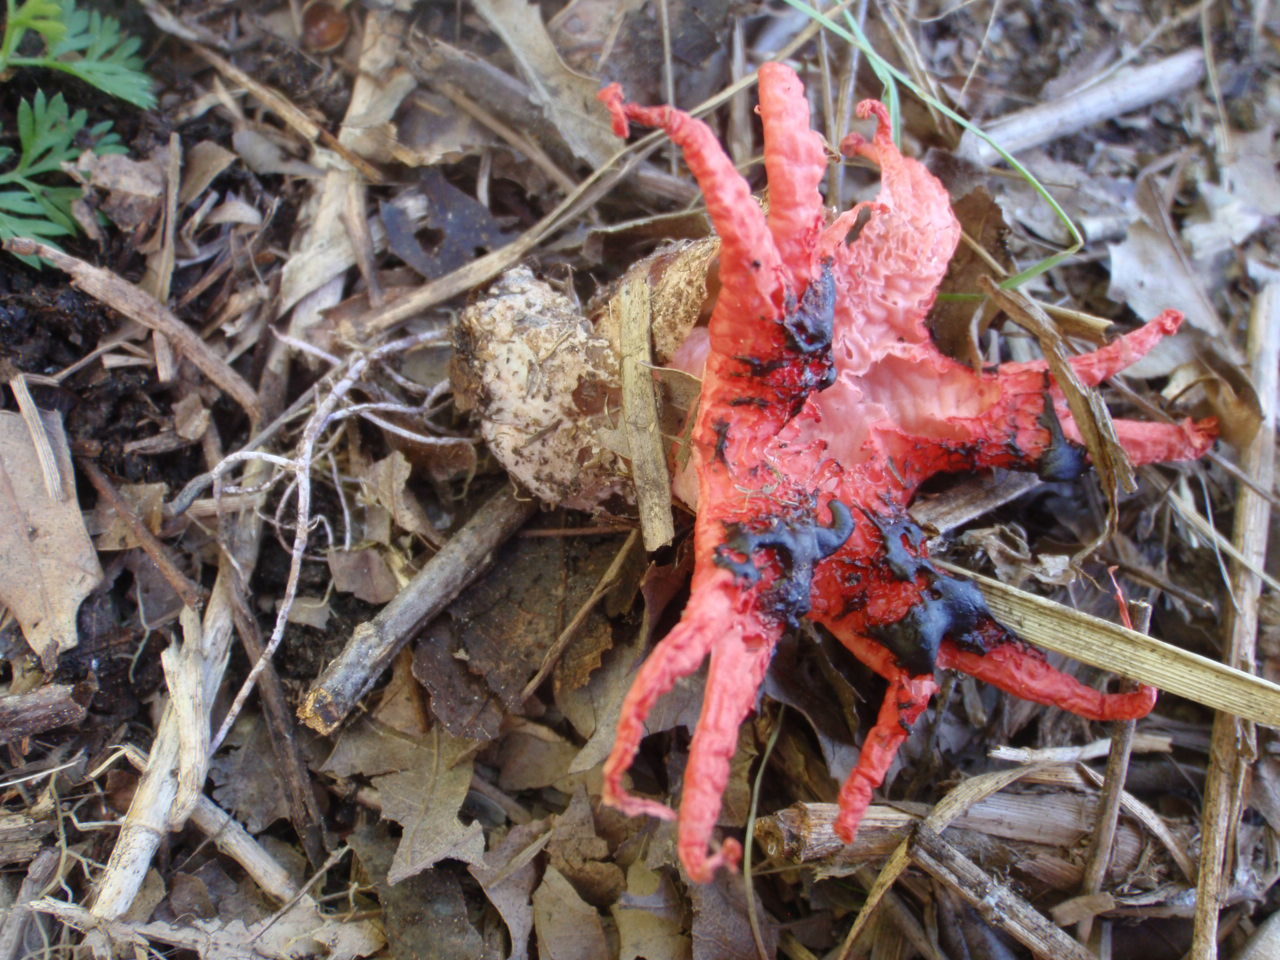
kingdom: Fungi
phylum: Basidiomycota
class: Agaricomycetes
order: Phallales
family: Phallaceae
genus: Aseroe
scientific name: Aseroe rubra
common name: Starfish fungus
